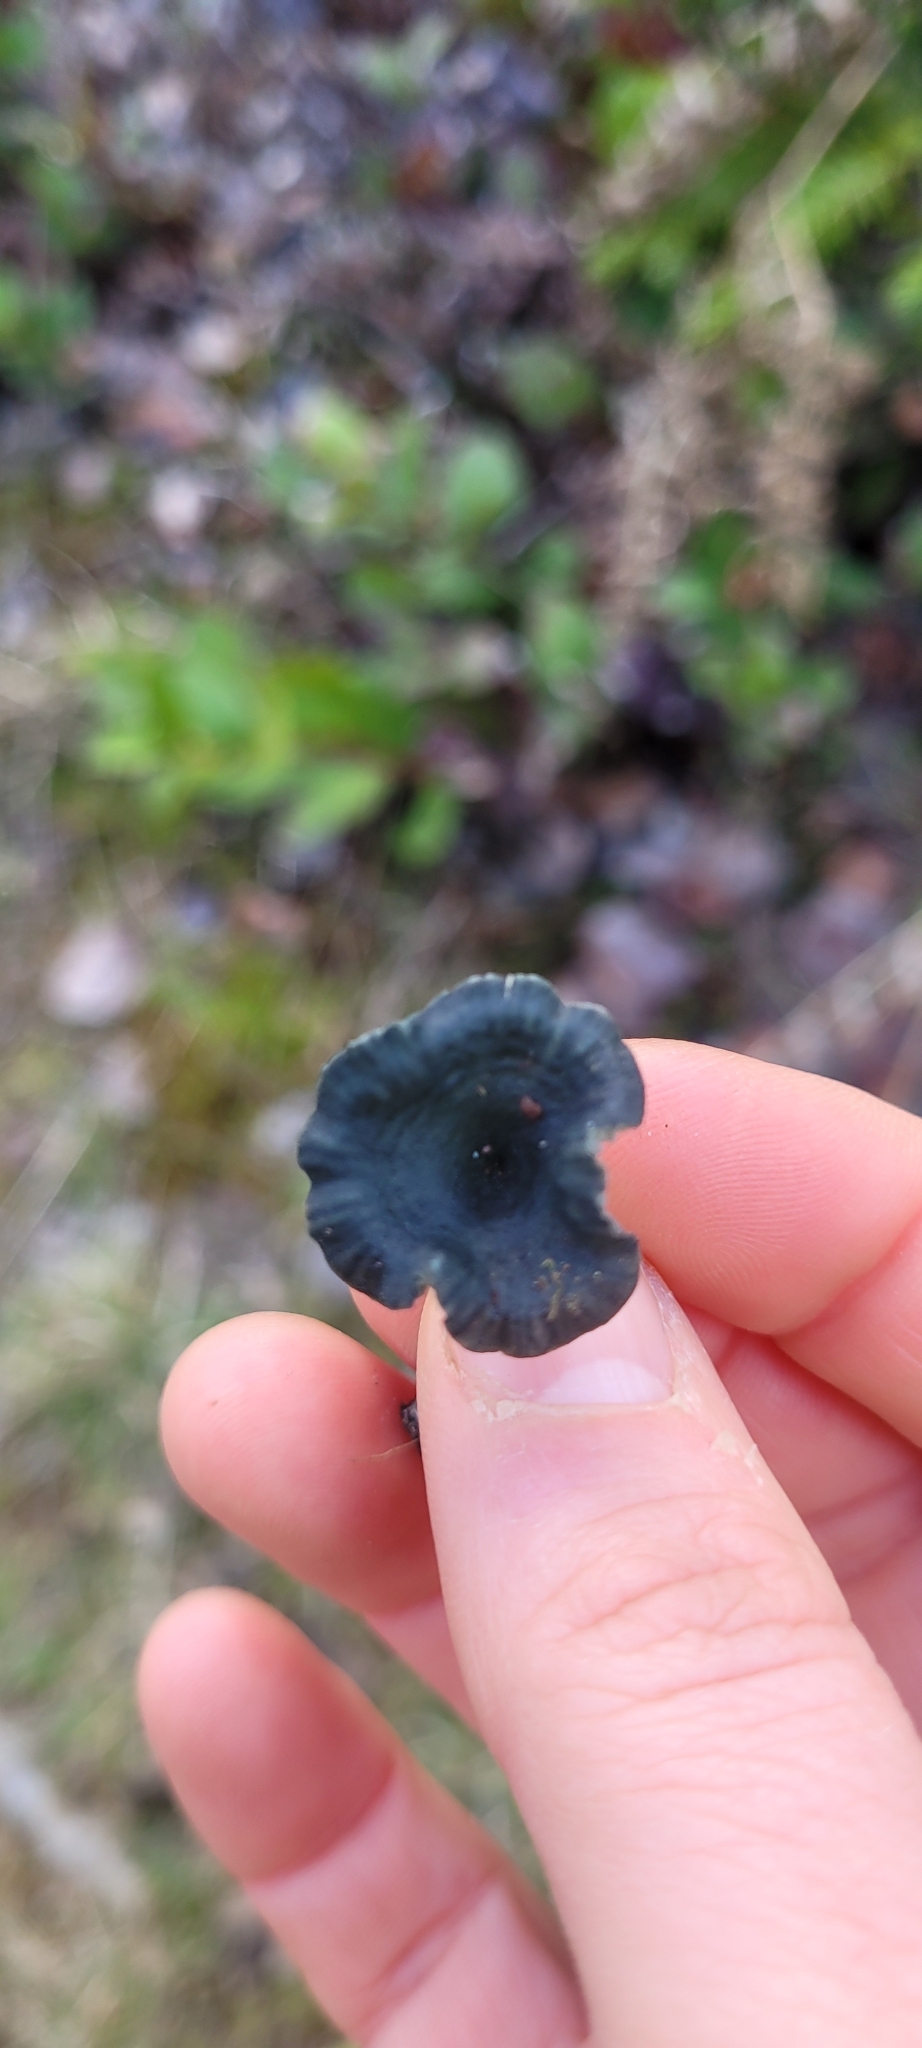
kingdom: Fungi
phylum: Basidiomycota
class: Agaricomycetes
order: Agaricales
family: Hygrophoraceae
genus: Arrhenia
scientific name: Arrhenia chlorocyanea
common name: Verdigris navel
